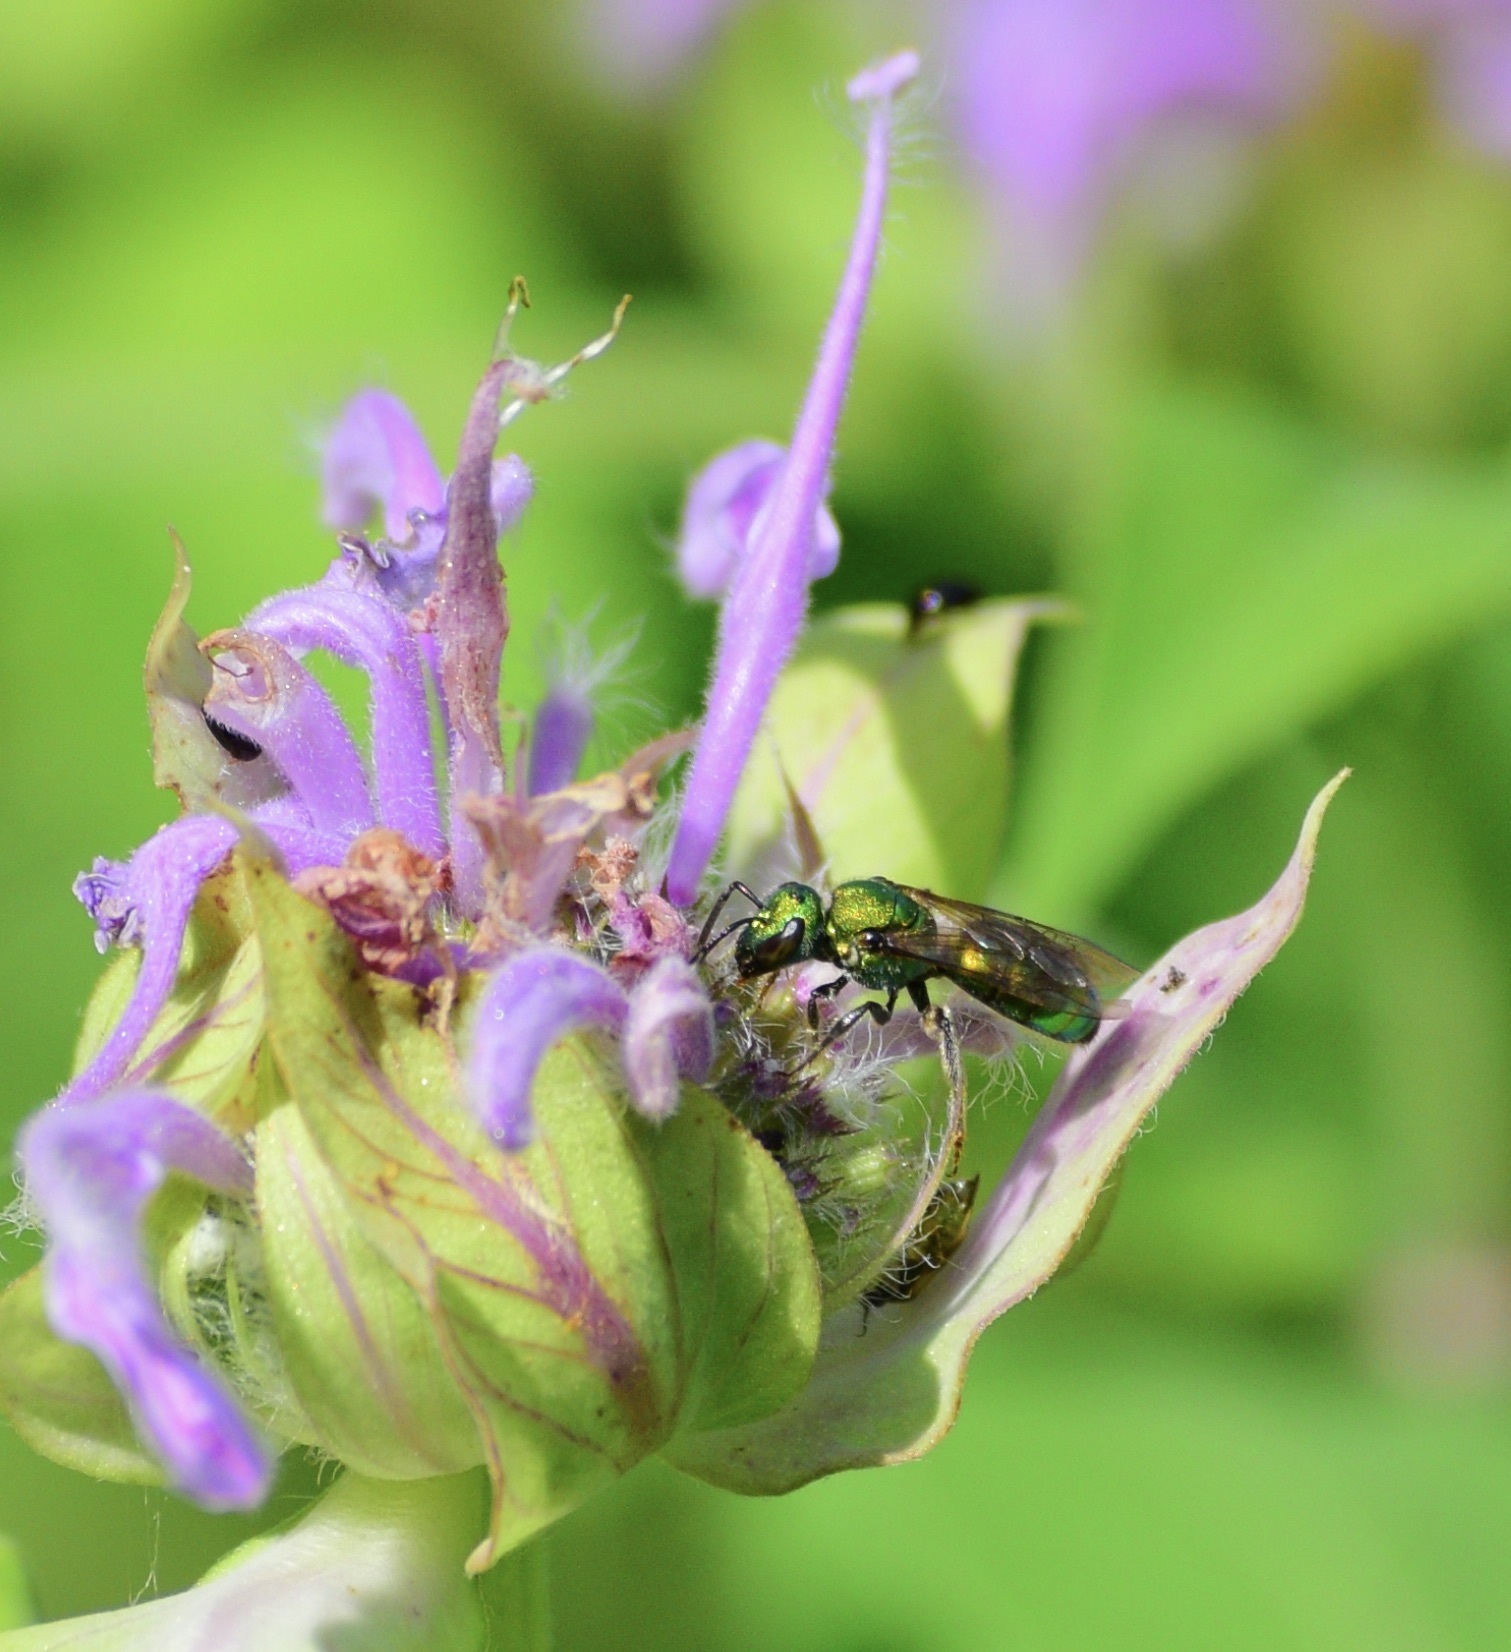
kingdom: Animalia
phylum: Arthropoda
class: Insecta
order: Hymenoptera
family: Halictidae
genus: Augochlora
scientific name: Augochlora pura
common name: Pure green sweat bee
